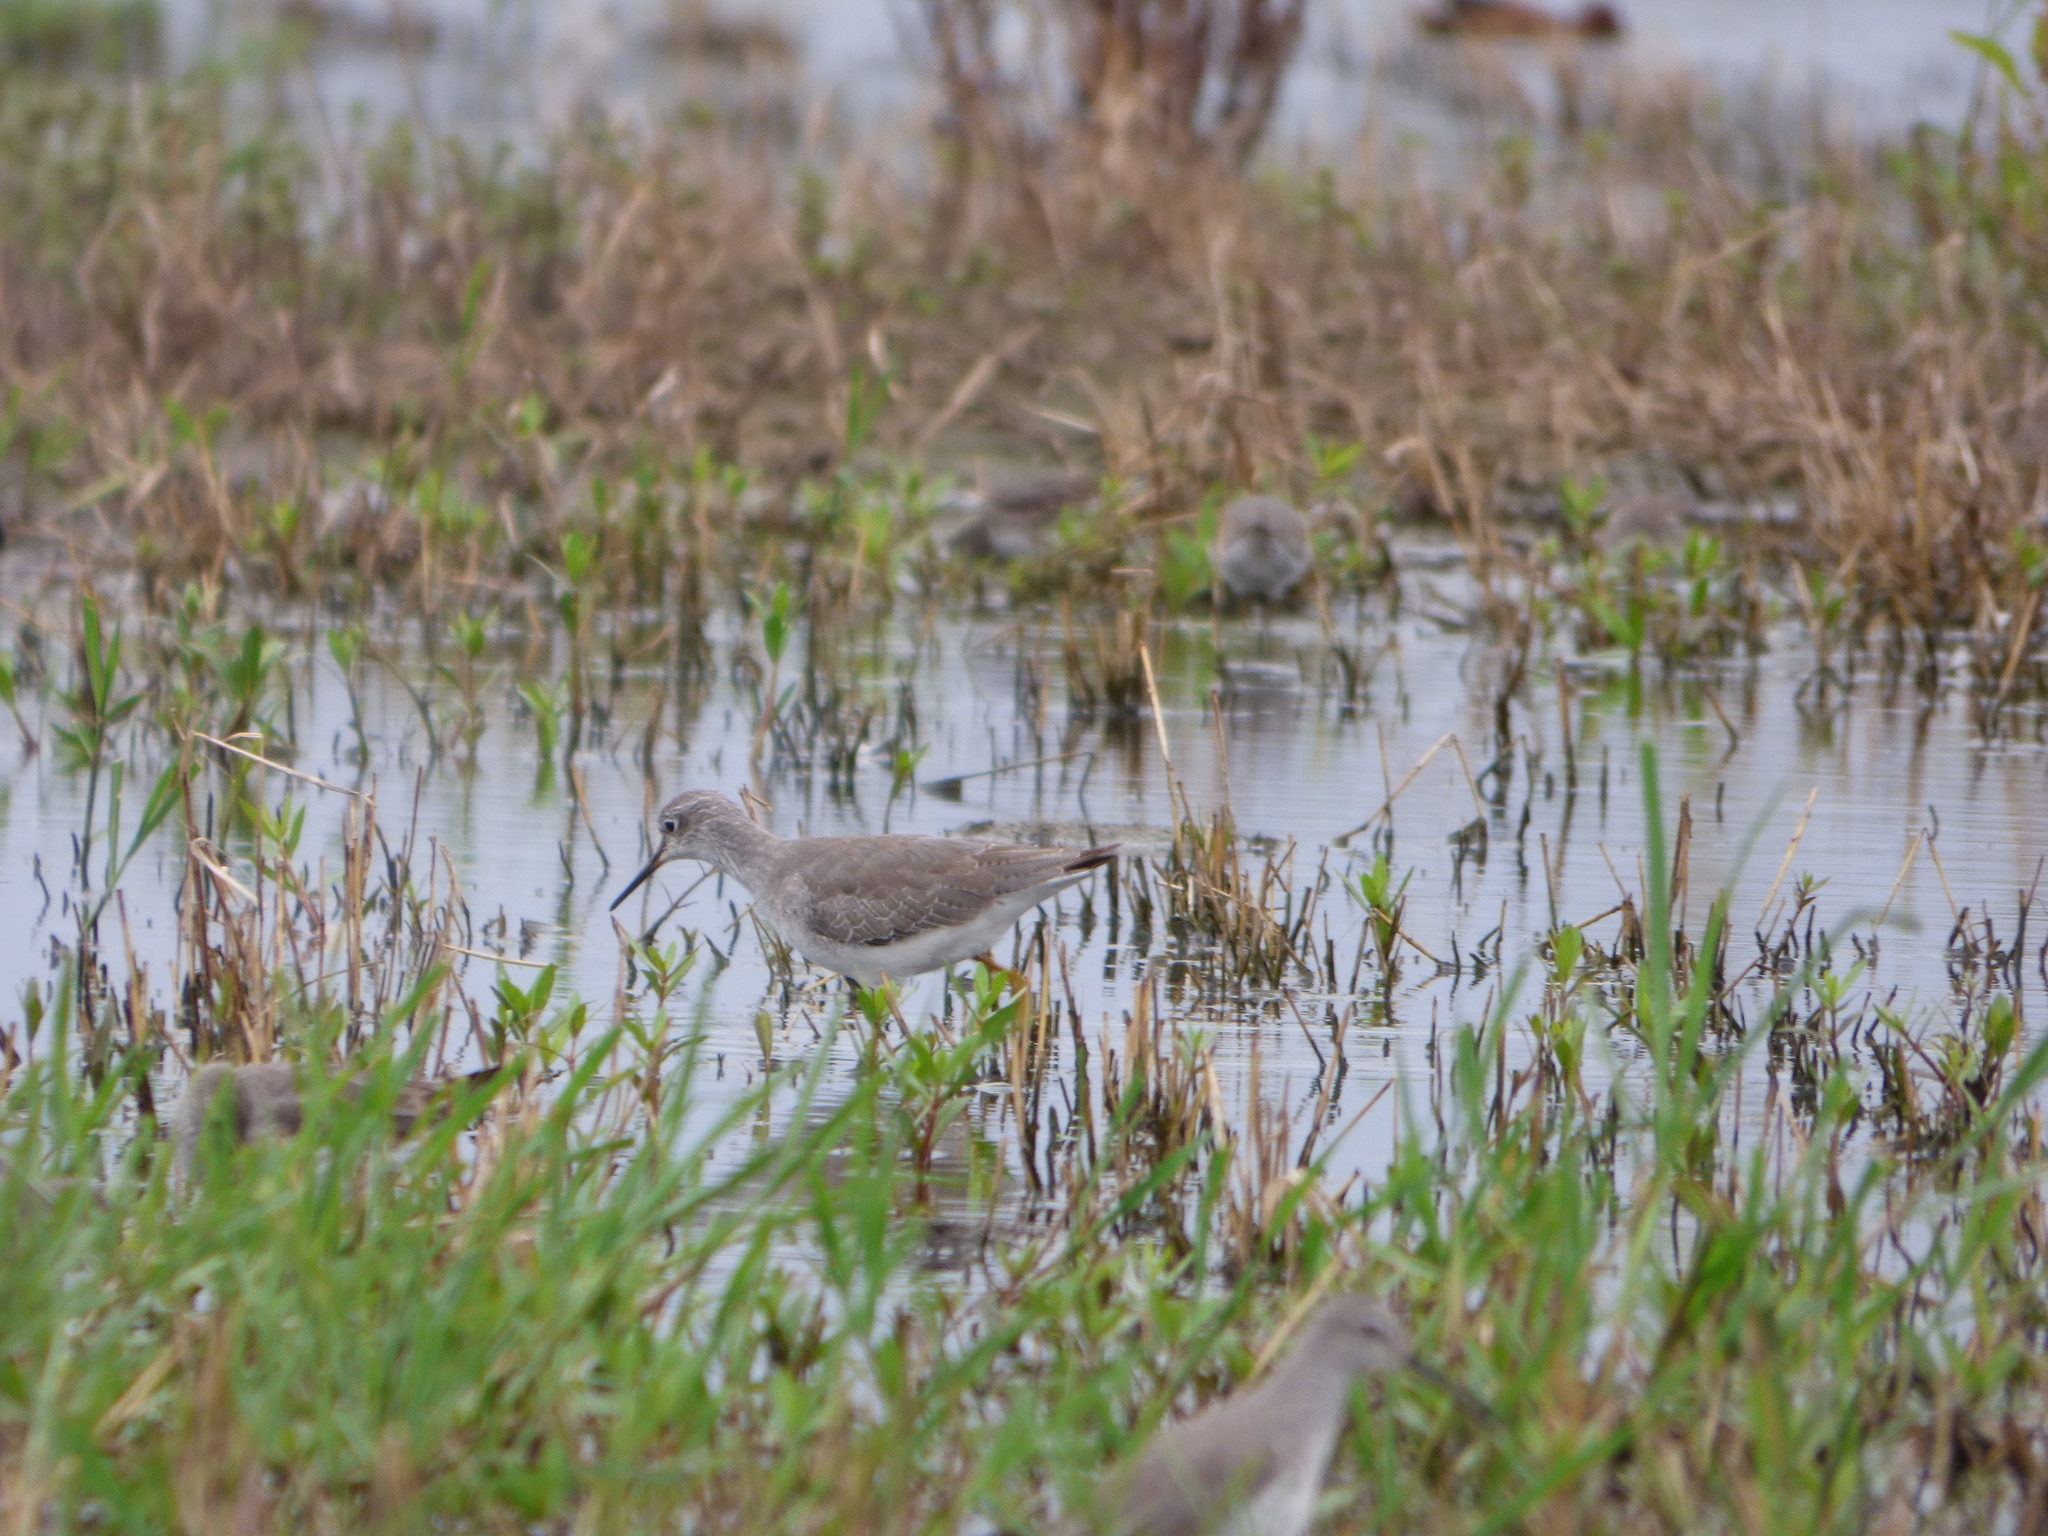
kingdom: Animalia
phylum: Chordata
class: Aves
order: Charadriiformes
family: Scolopacidae
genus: Tringa
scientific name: Tringa flavipes
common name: Lesser yellowlegs
